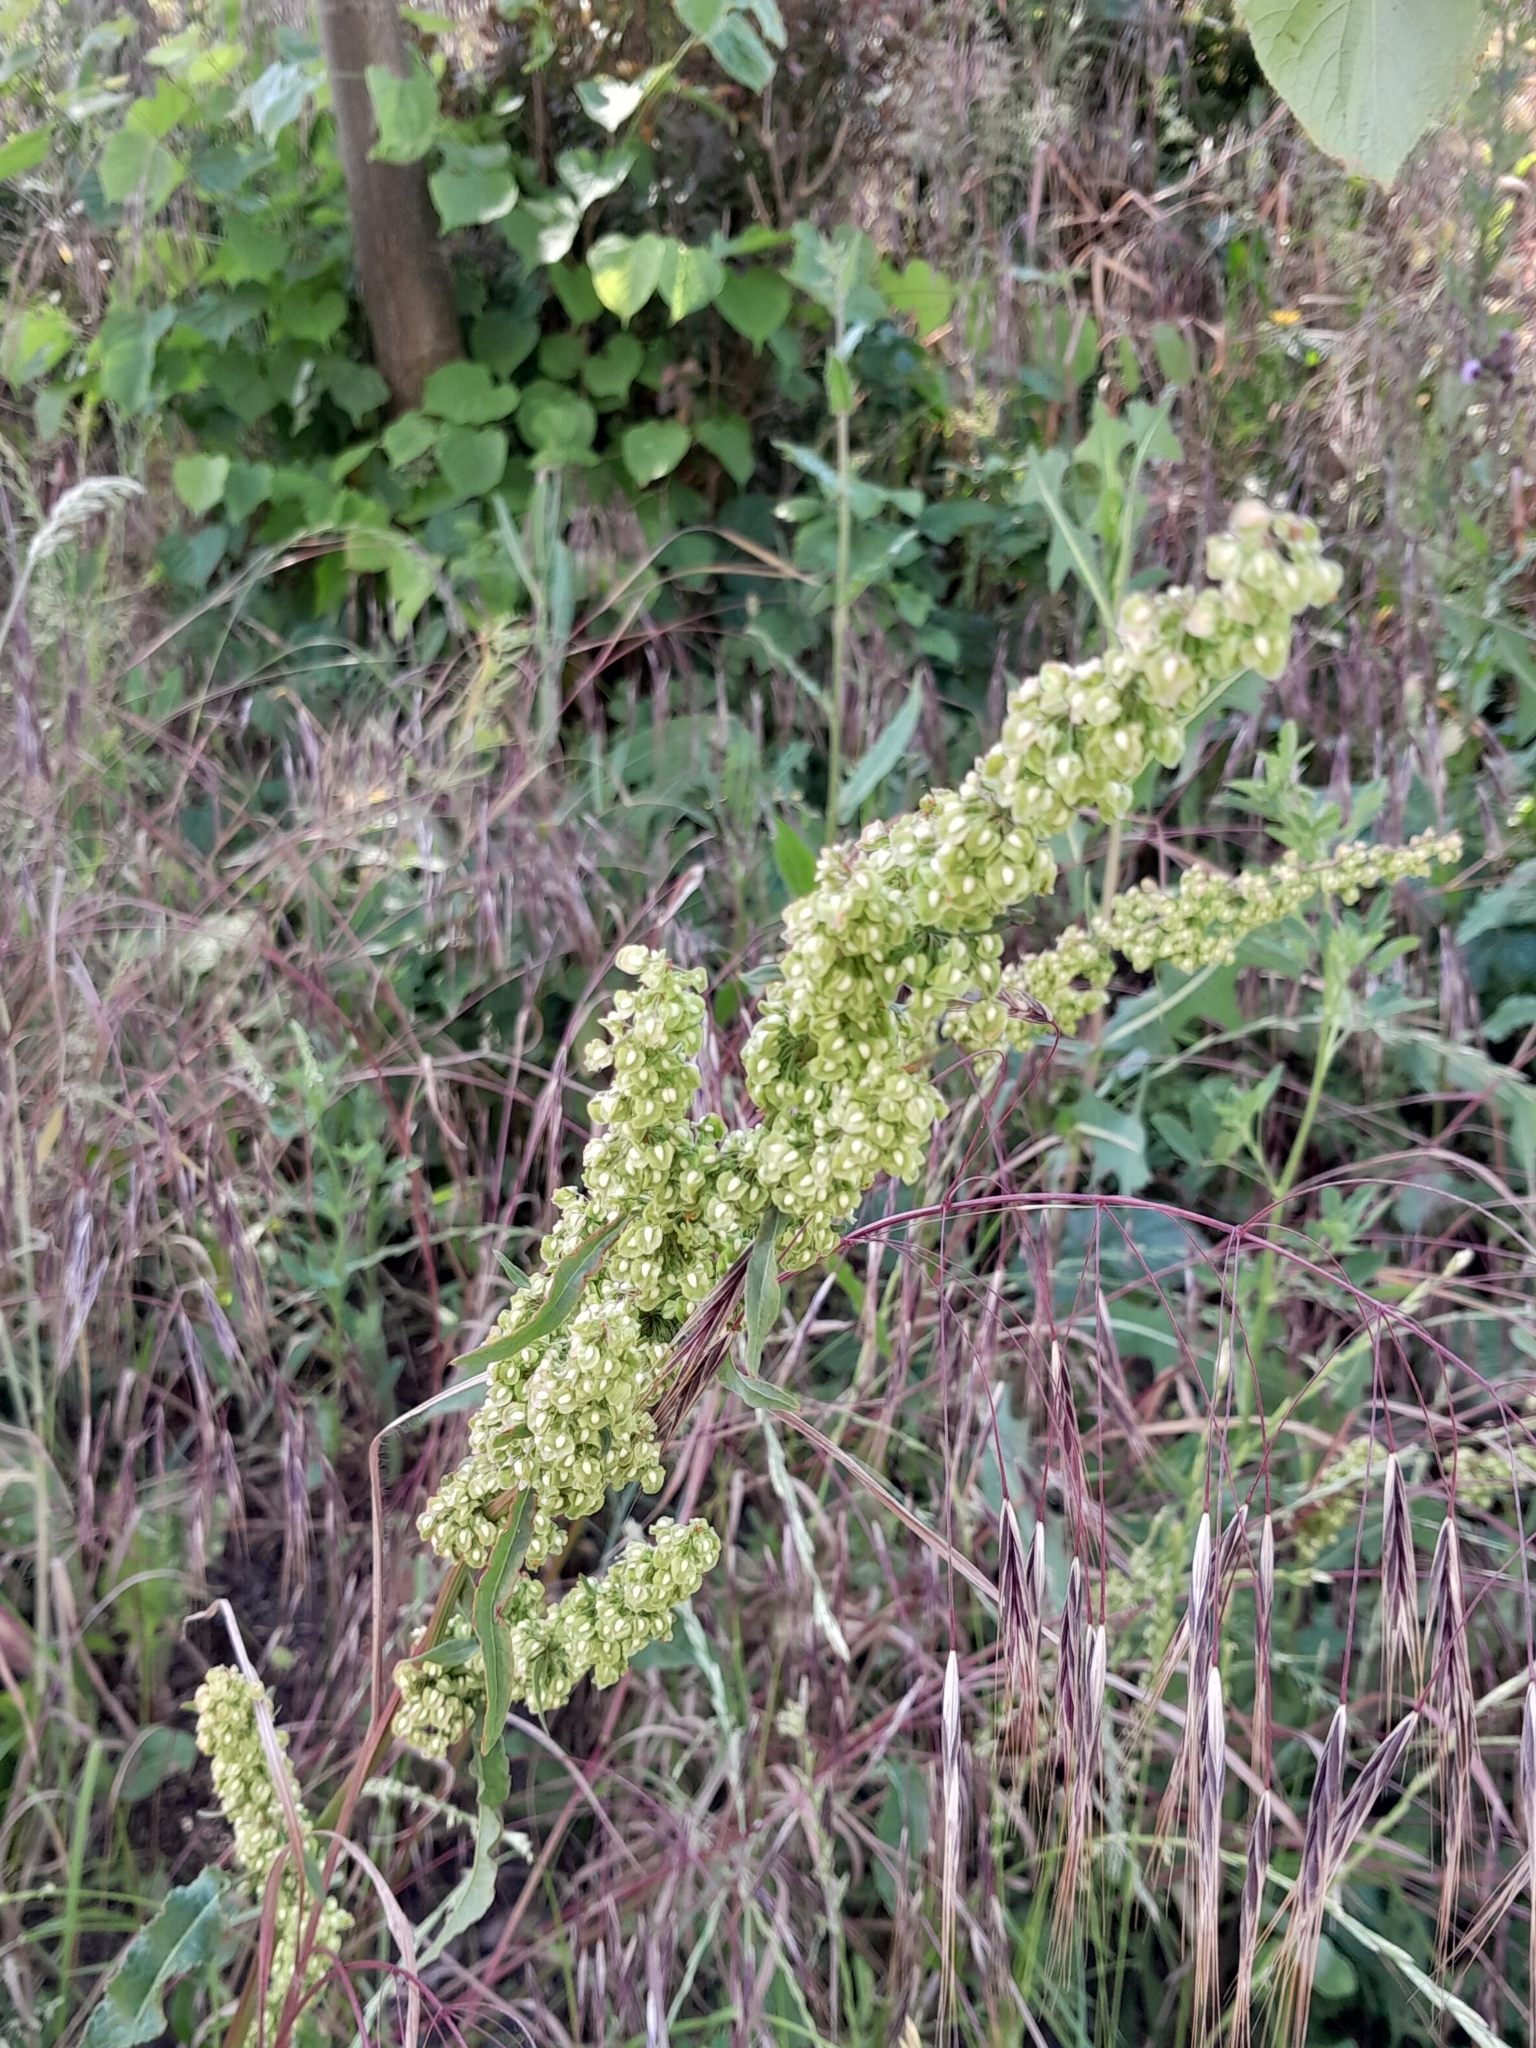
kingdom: Plantae
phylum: Tracheophyta
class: Magnoliopsida
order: Caryophyllales
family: Polygonaceae
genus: Rumex
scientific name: Rumex crispus
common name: Curled dock
